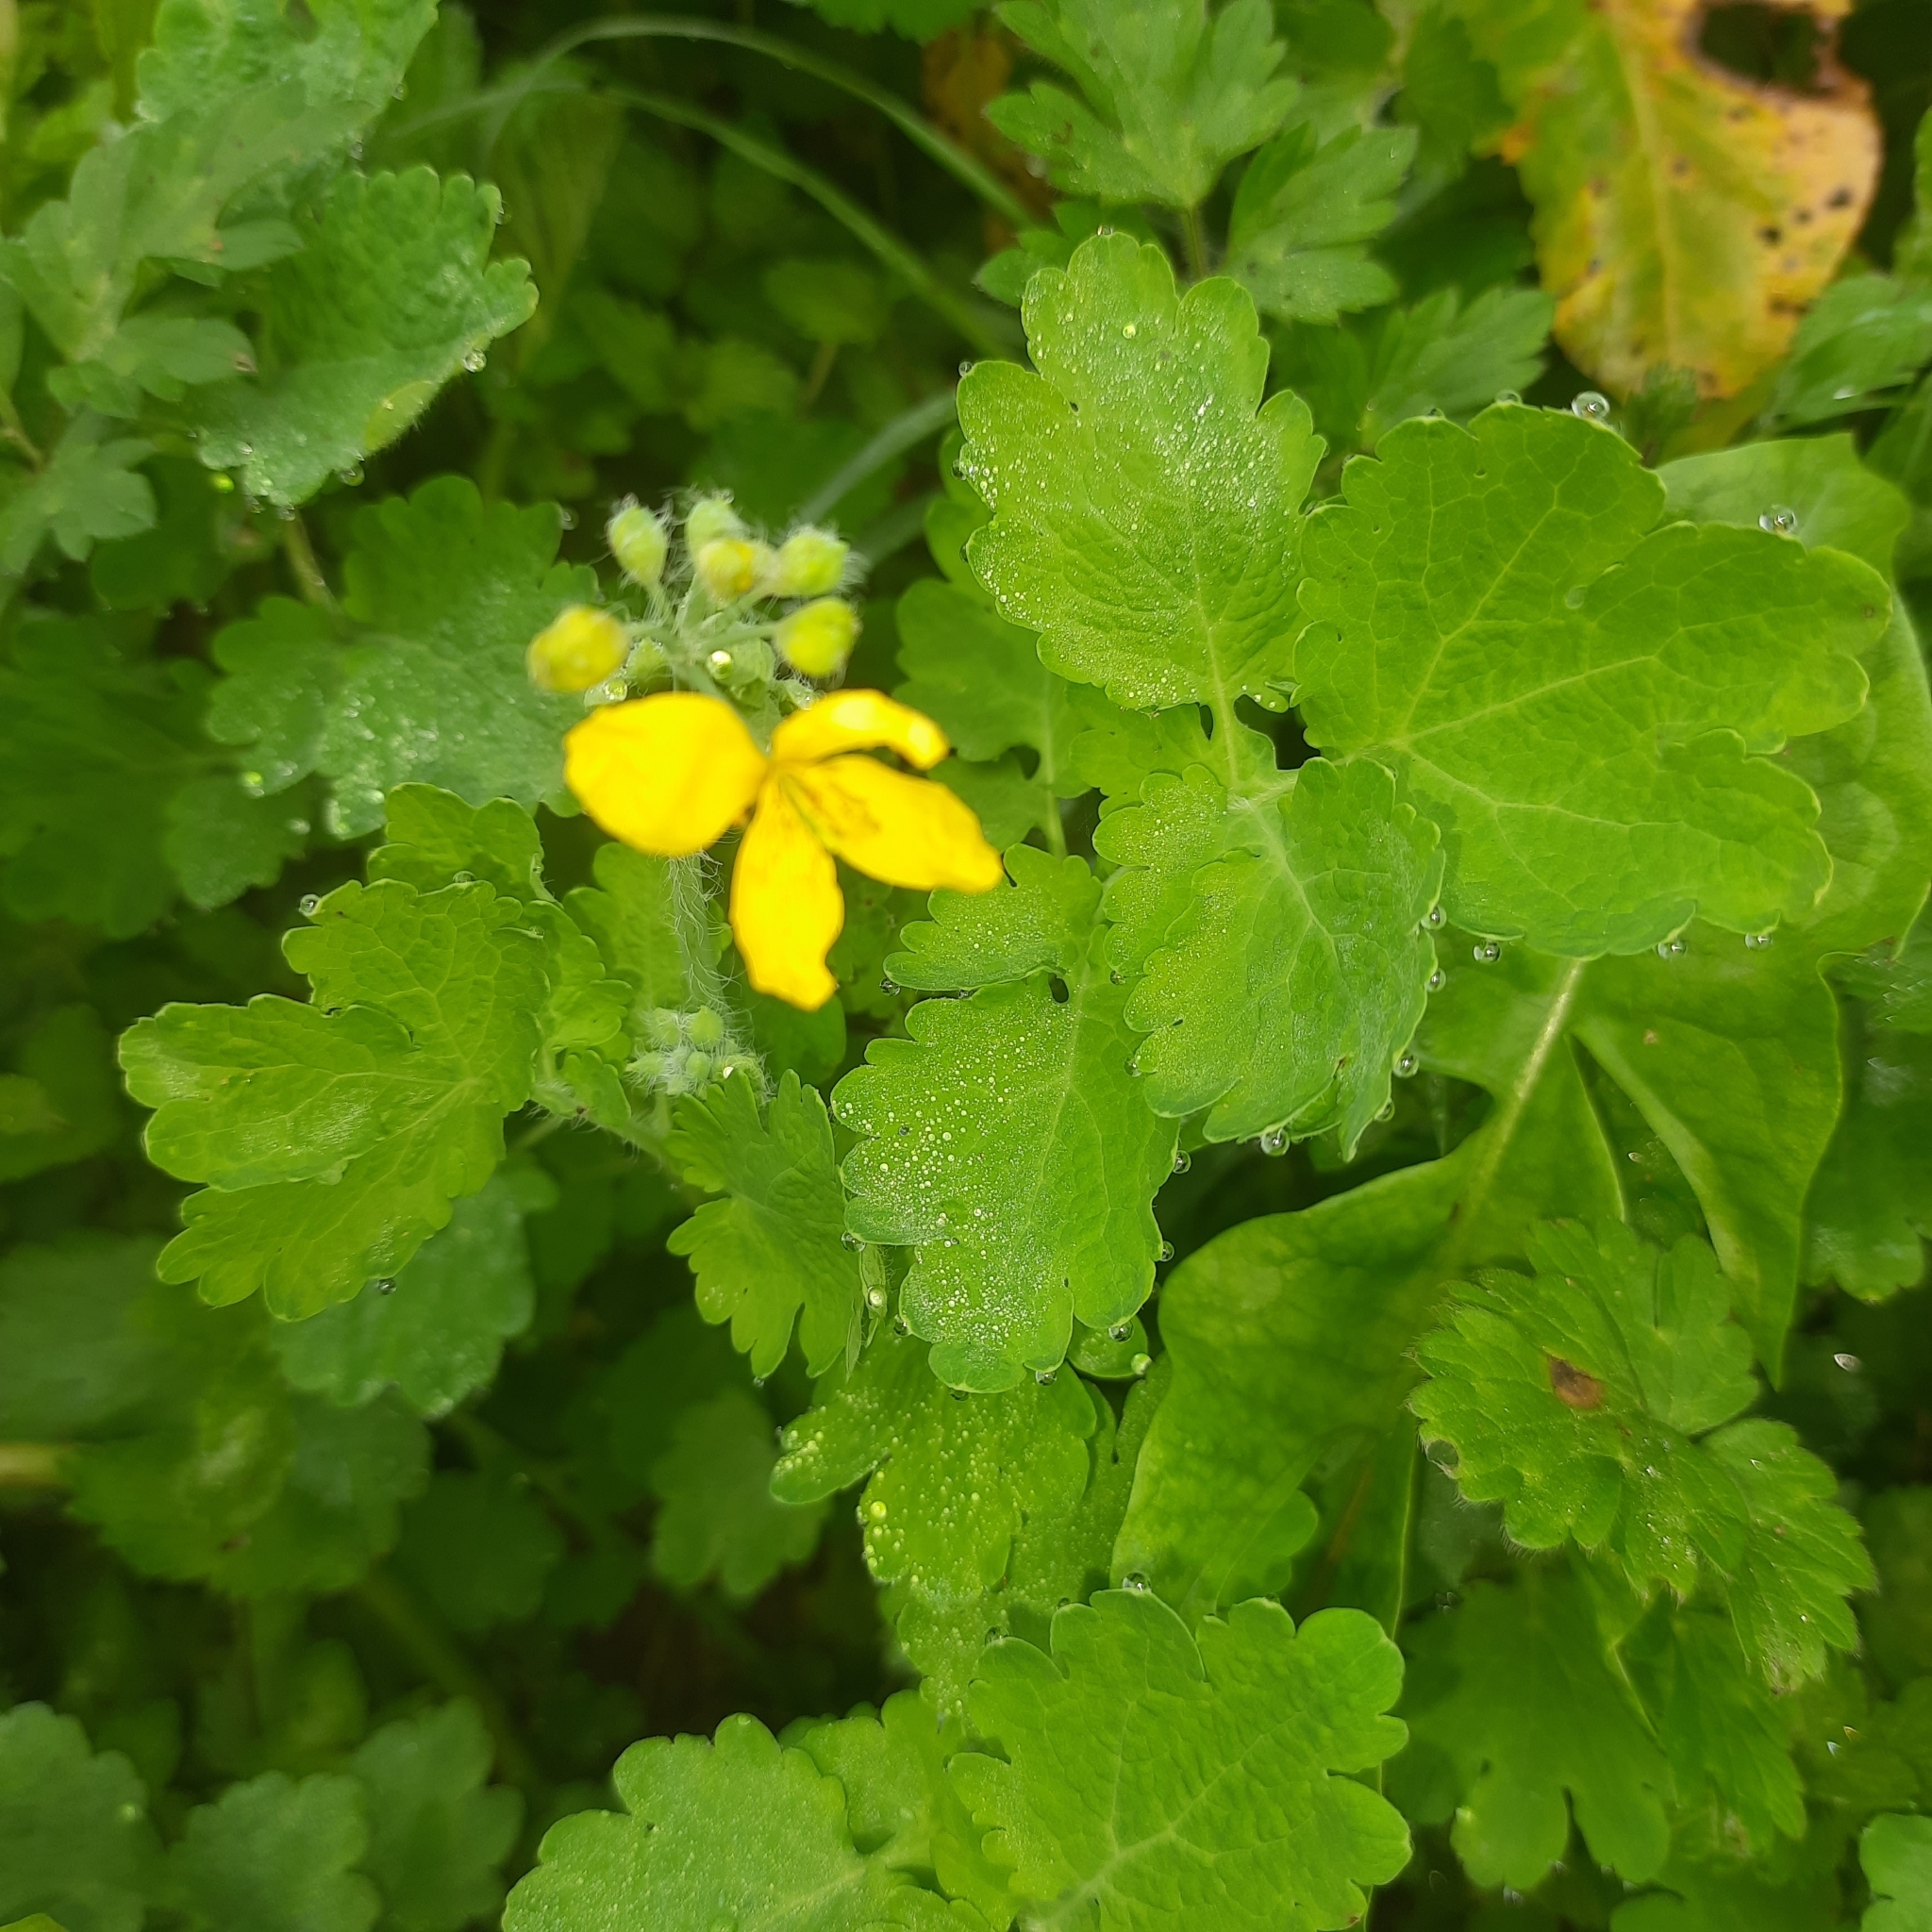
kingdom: Plantae
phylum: Tracheophyta
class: Magnoliopsida
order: Ranunculales
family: Papaveraceae
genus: Chelidonium
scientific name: Chelidonium majus
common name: Greater celandine
